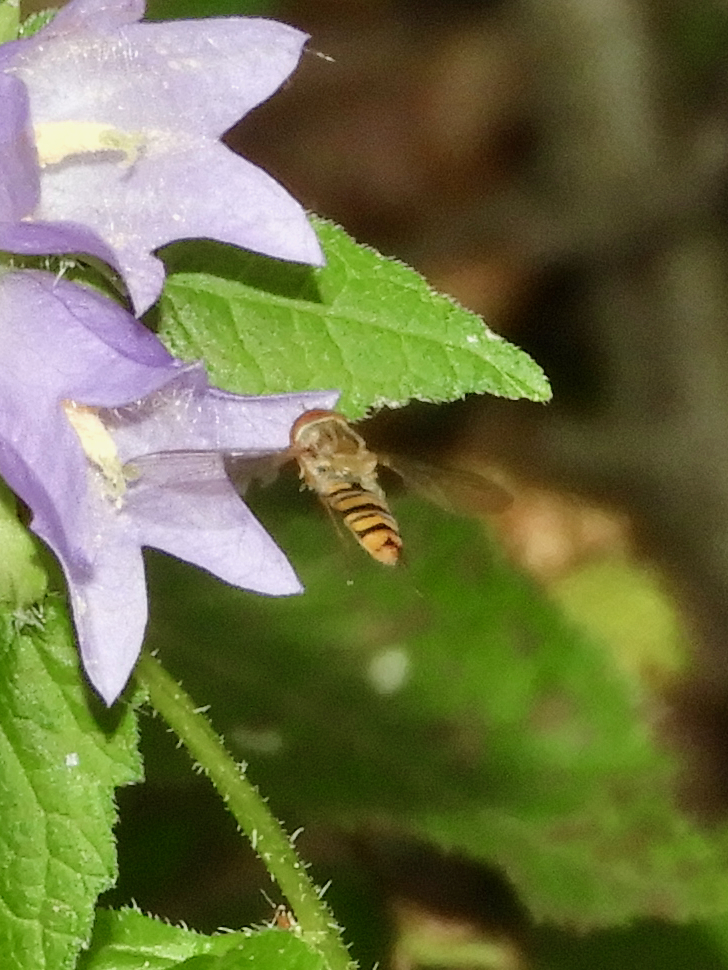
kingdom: Animalia
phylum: Arthropoda
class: Insecta
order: Diptera
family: Syrphidae
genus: Episyrphus
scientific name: Episyrphus balteatus
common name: Marmalade hoverfly
